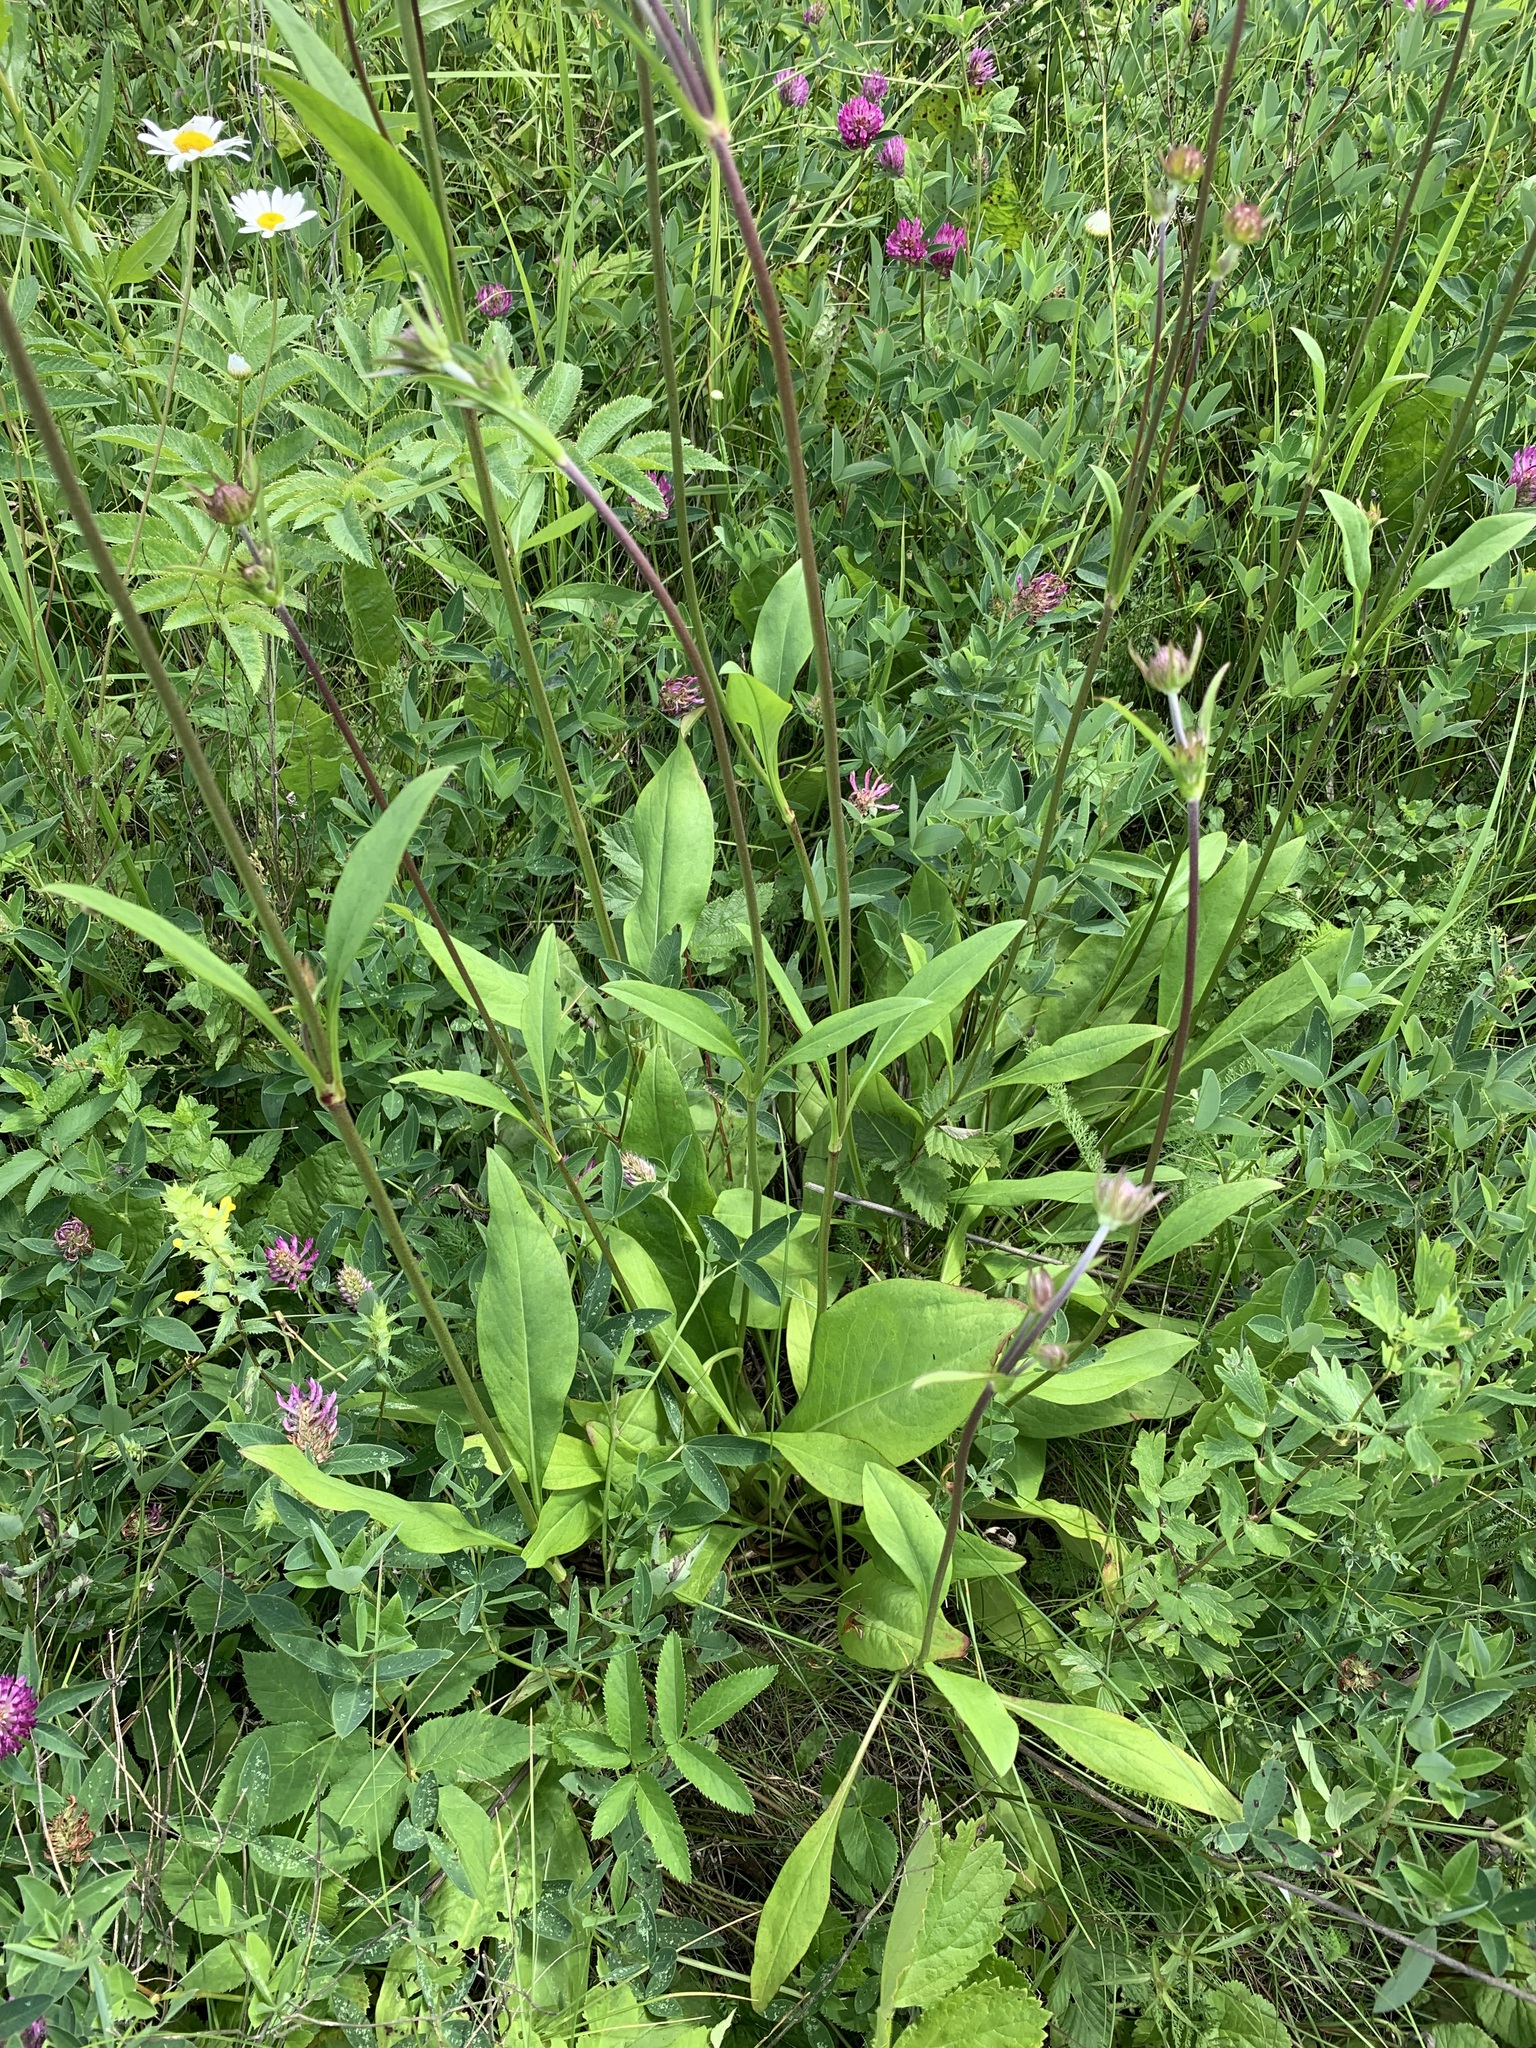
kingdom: Plantae
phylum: Tracheophyta
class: Magnoliopsida
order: Dipsacales
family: Caprifoliaceae
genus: Succisa
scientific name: Succisa pratensis
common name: Devil's-bit
